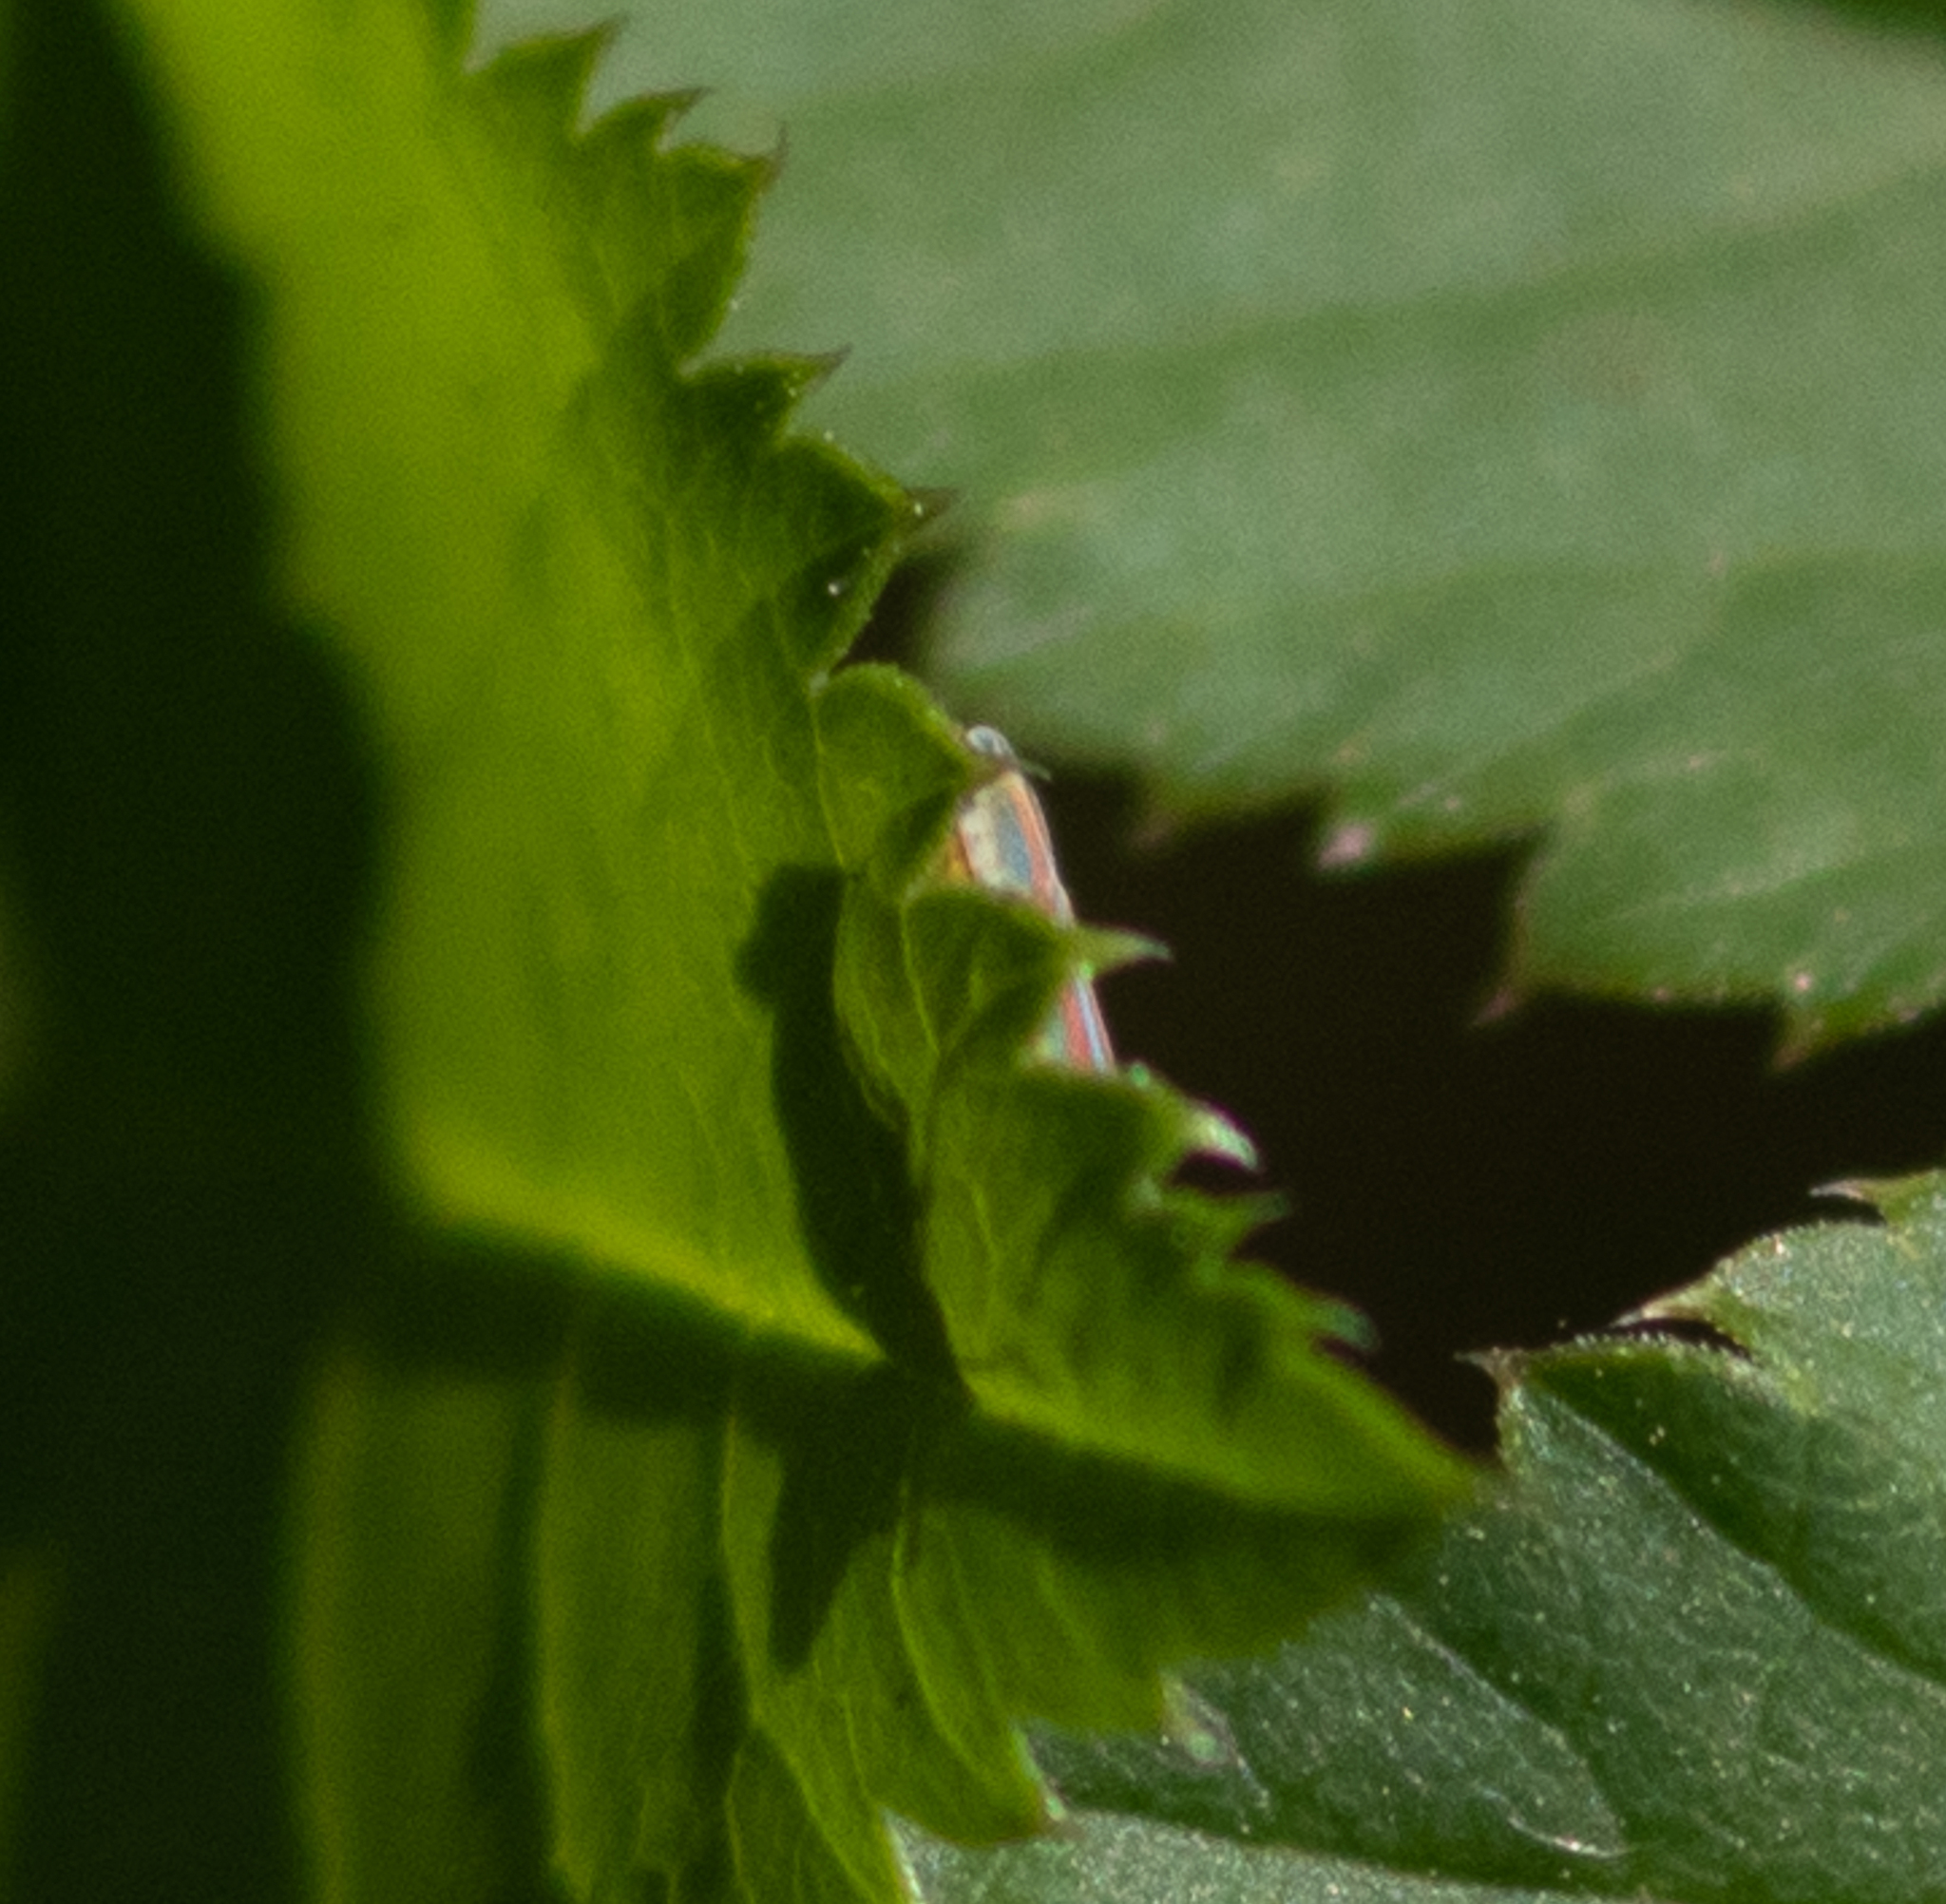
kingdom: Animalia
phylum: Arthropoda
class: Insecta
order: Hemiptera
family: Cicadellidae
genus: Graphocephala
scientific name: Graphocephala versuta
